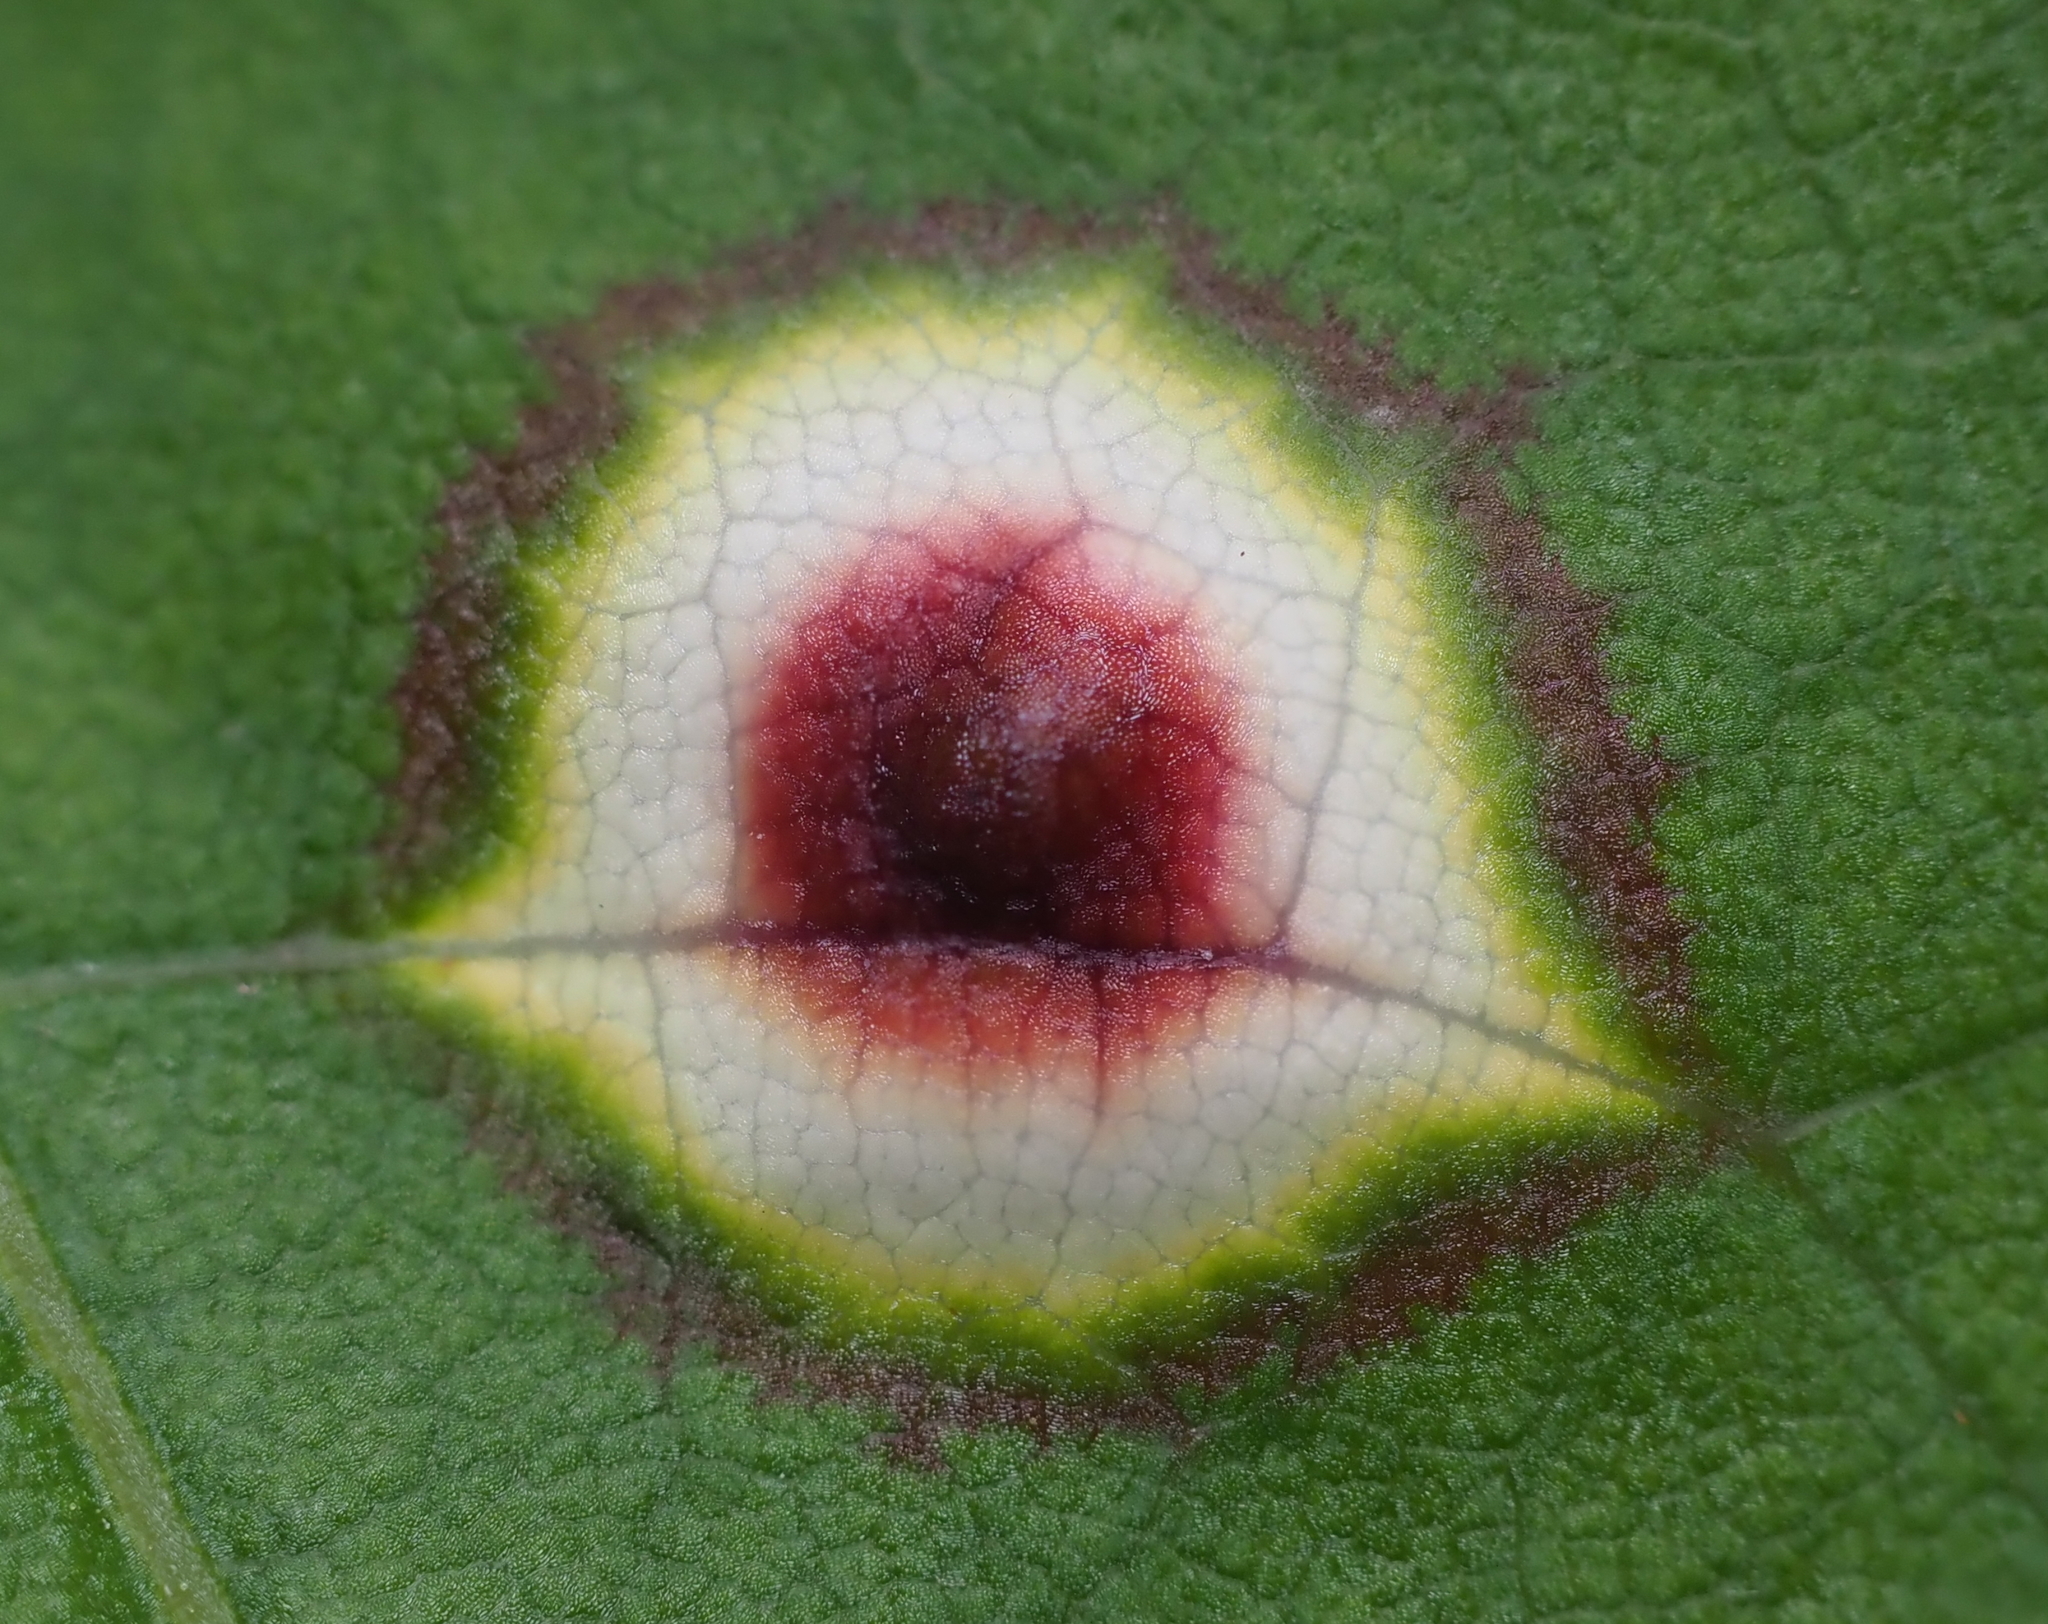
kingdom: Animalia
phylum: Arthropoda
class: Insecta
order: Diptera
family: Cecidomyiidae
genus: Acericecis
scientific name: Acericecis ocellaris
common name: Ocellate gall midge
